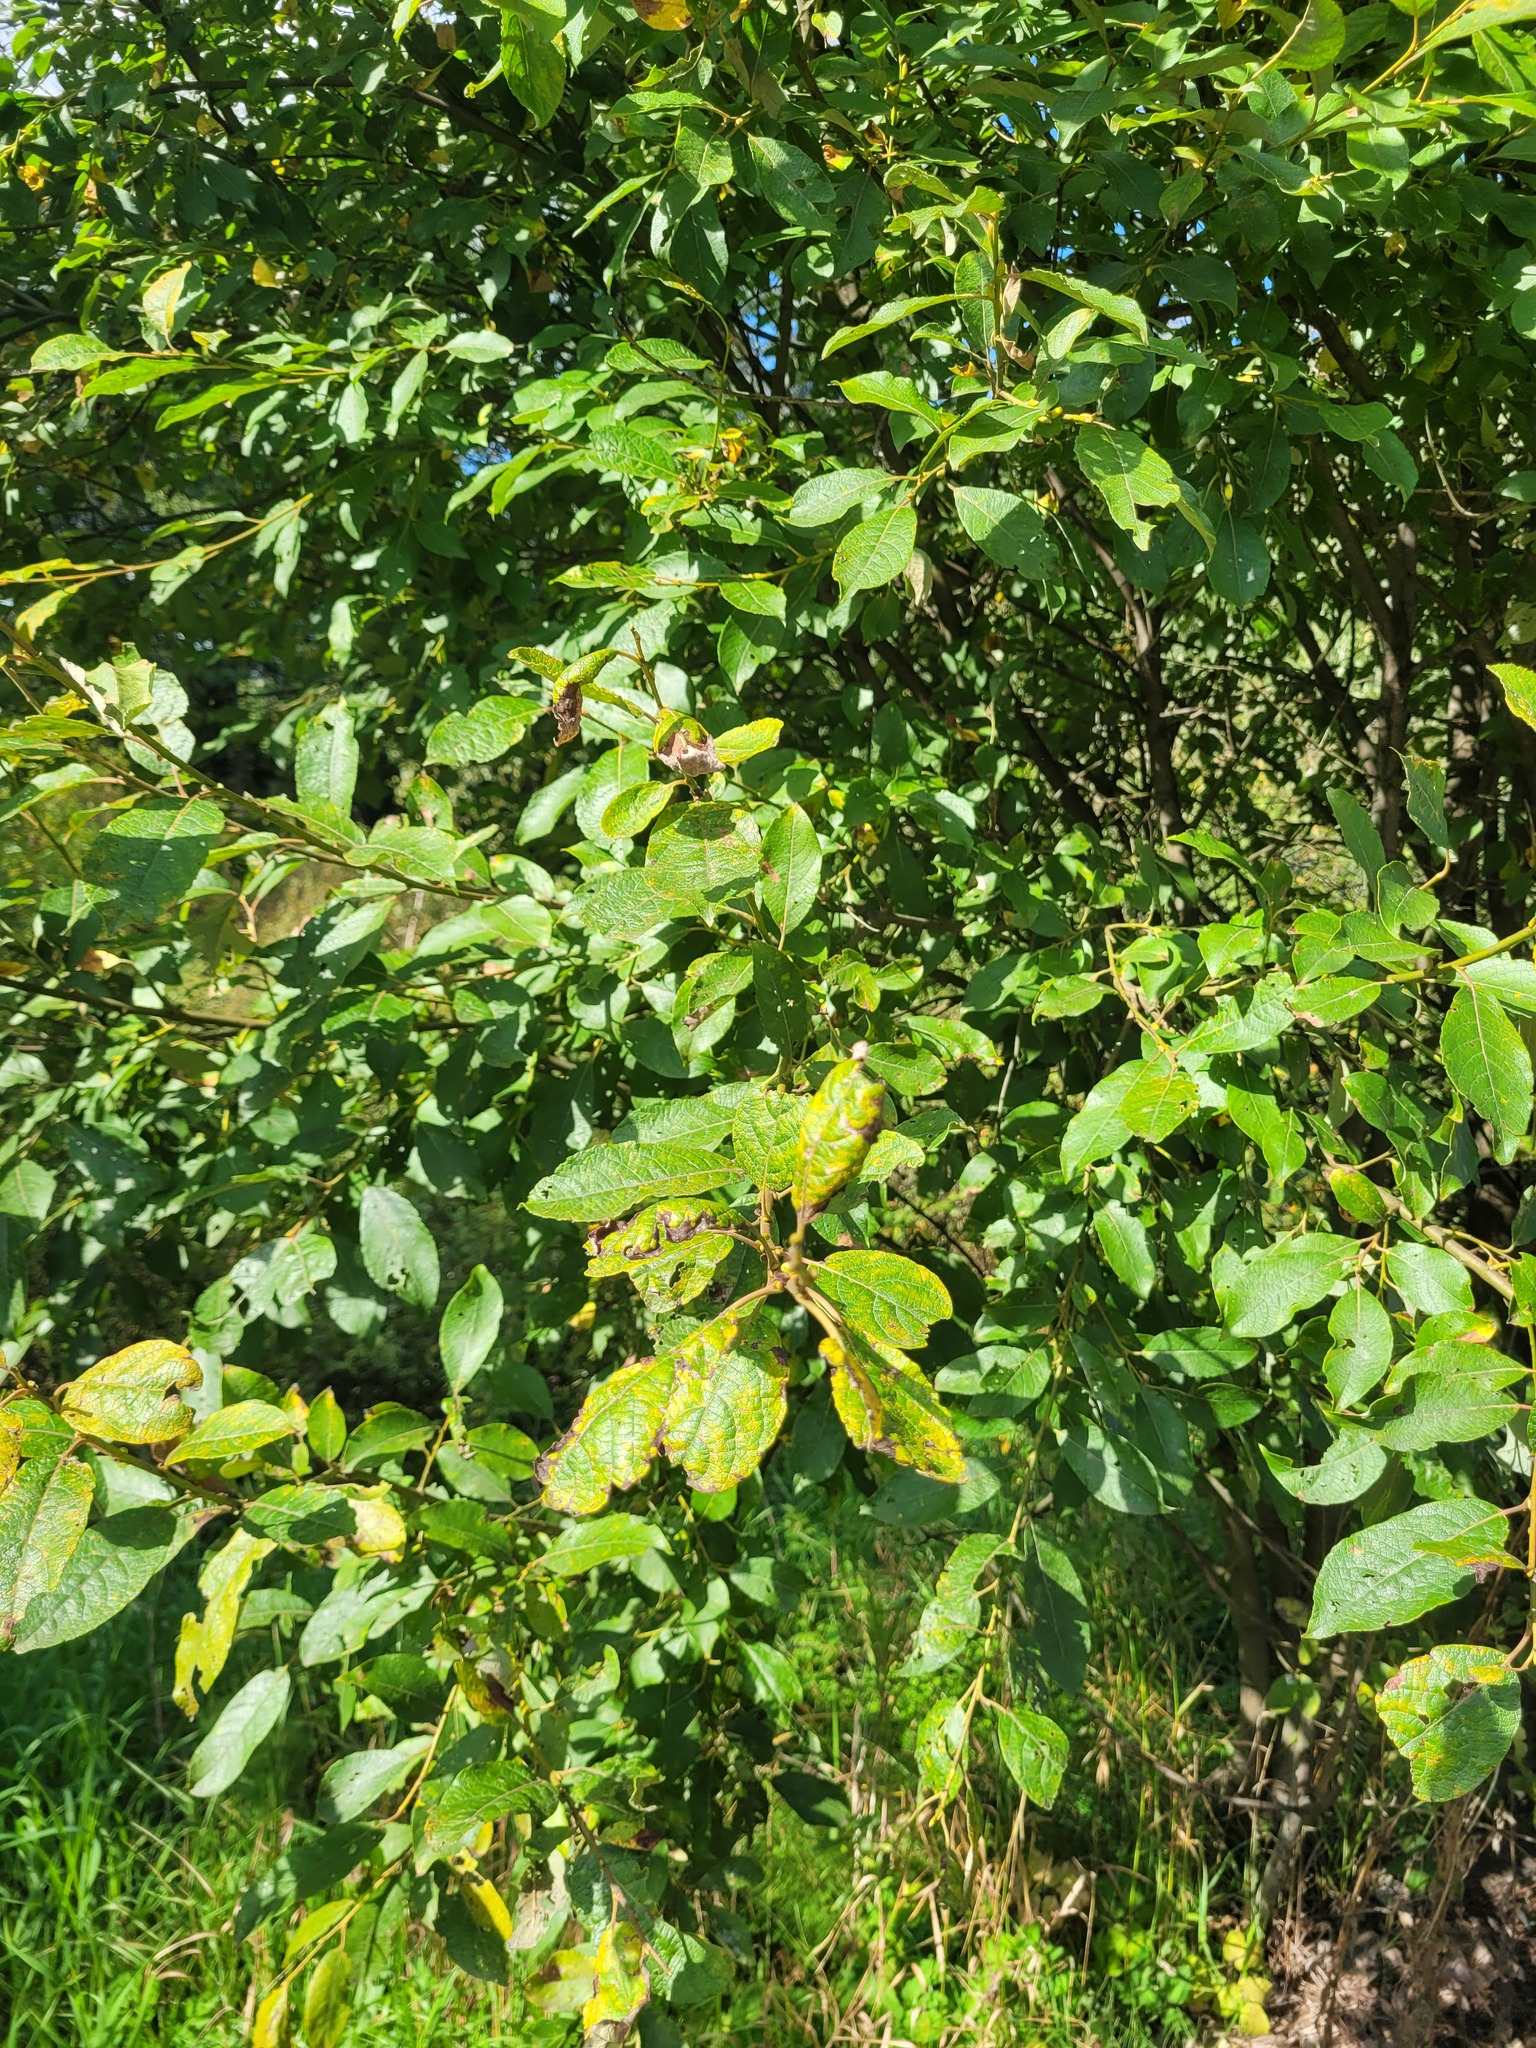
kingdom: Plantae
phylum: Tracheophyta
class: Magnoliopsida
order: Malpighiales
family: Salicaceae
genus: Salix
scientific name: Salix caprea
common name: Goat willow
